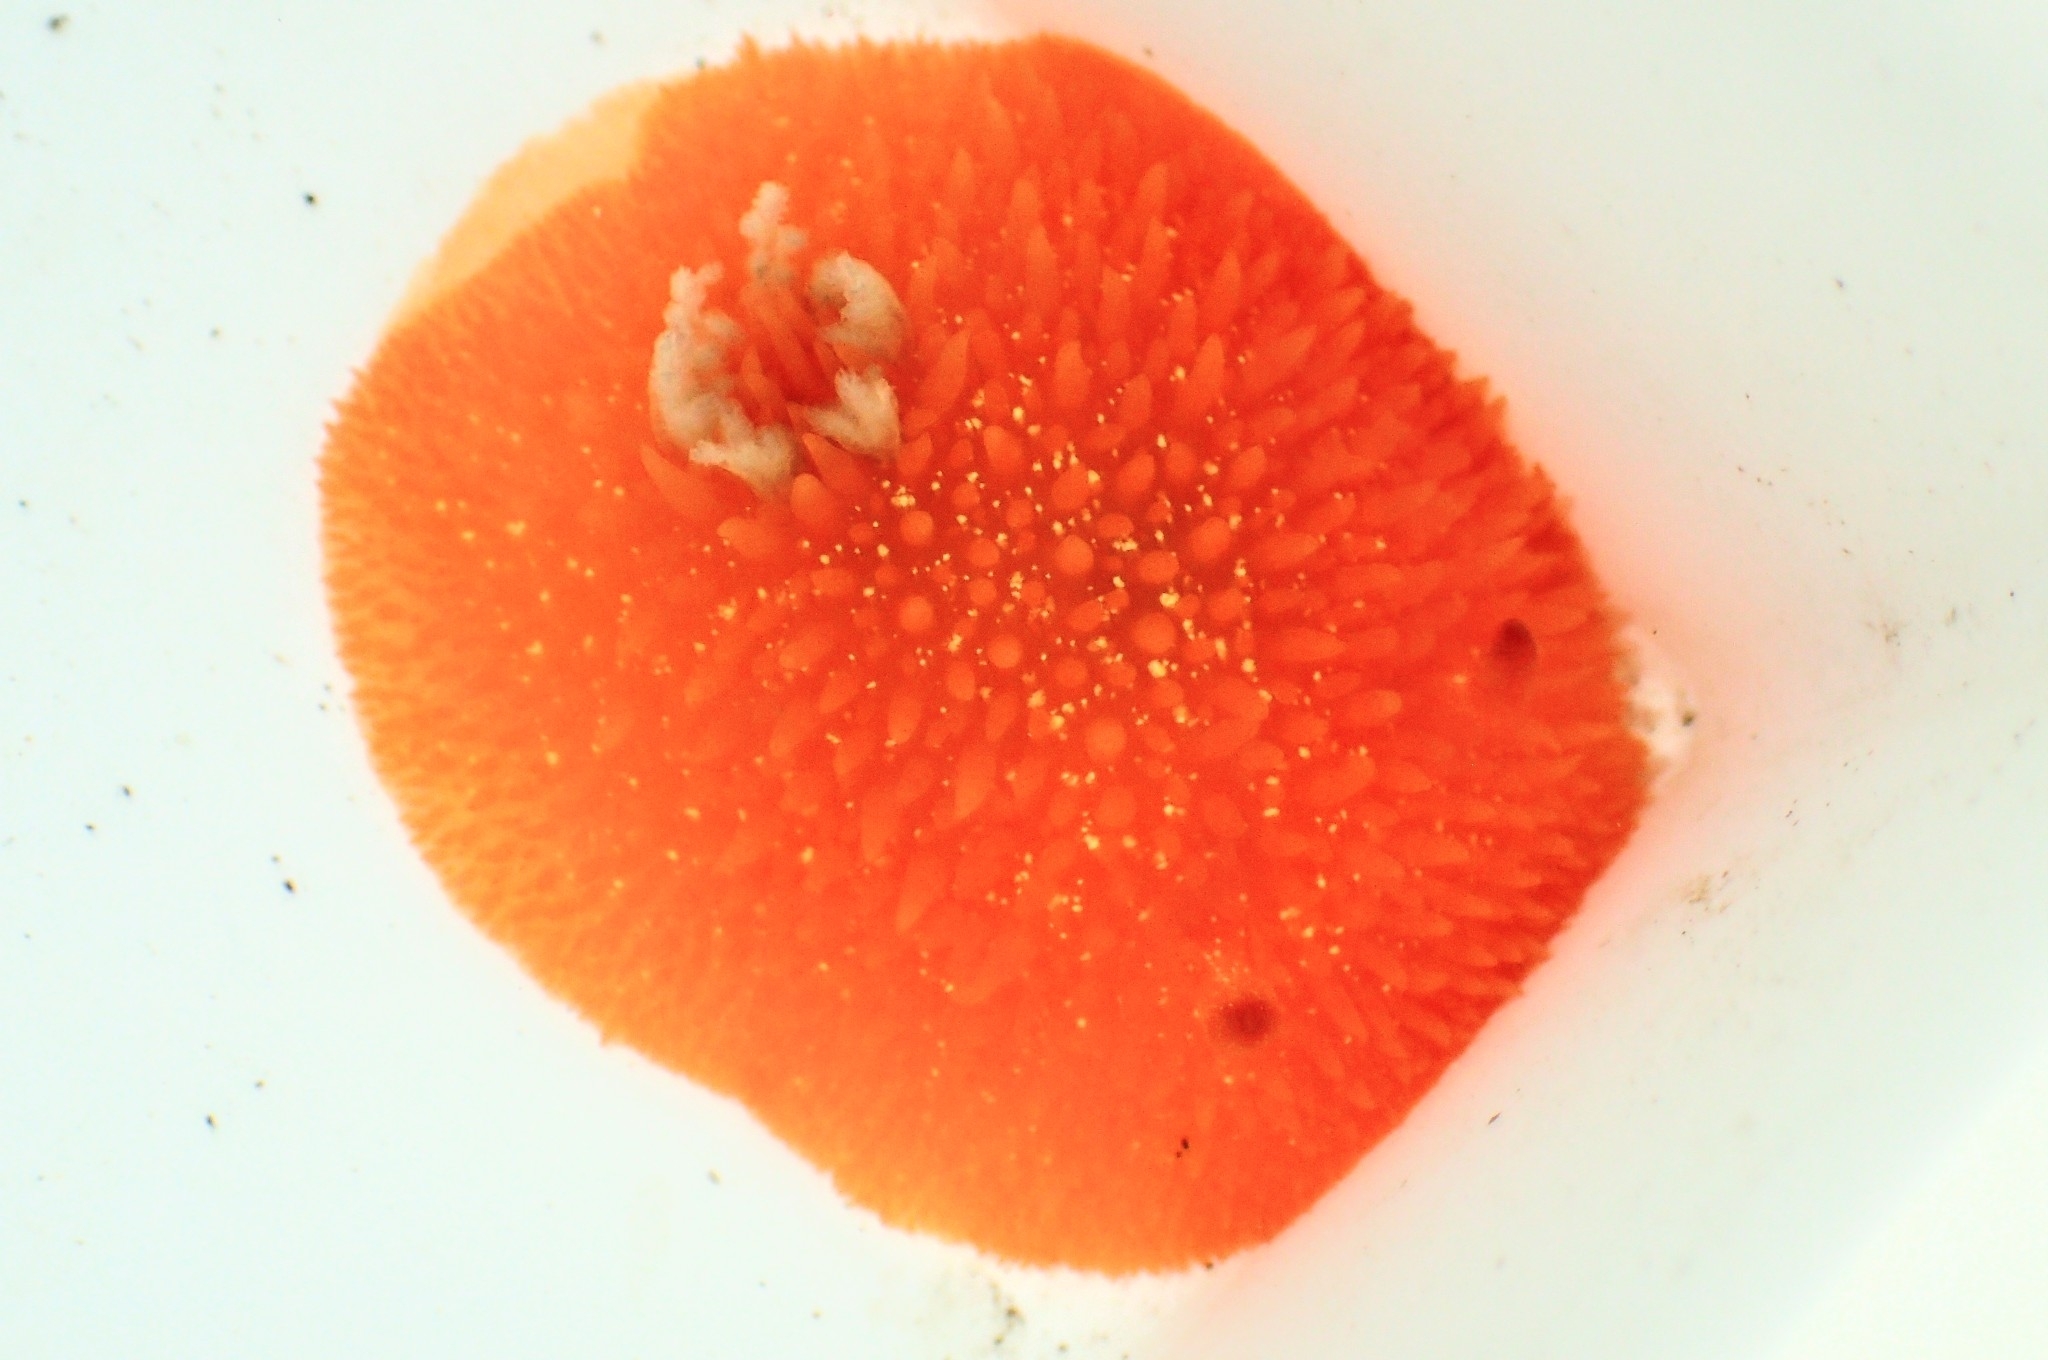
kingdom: Animalia
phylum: Mollusca
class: Gastropoda
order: Nudibranchia
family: Onchidorididae
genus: Acanthodoris
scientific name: Acanthodoris lutea
